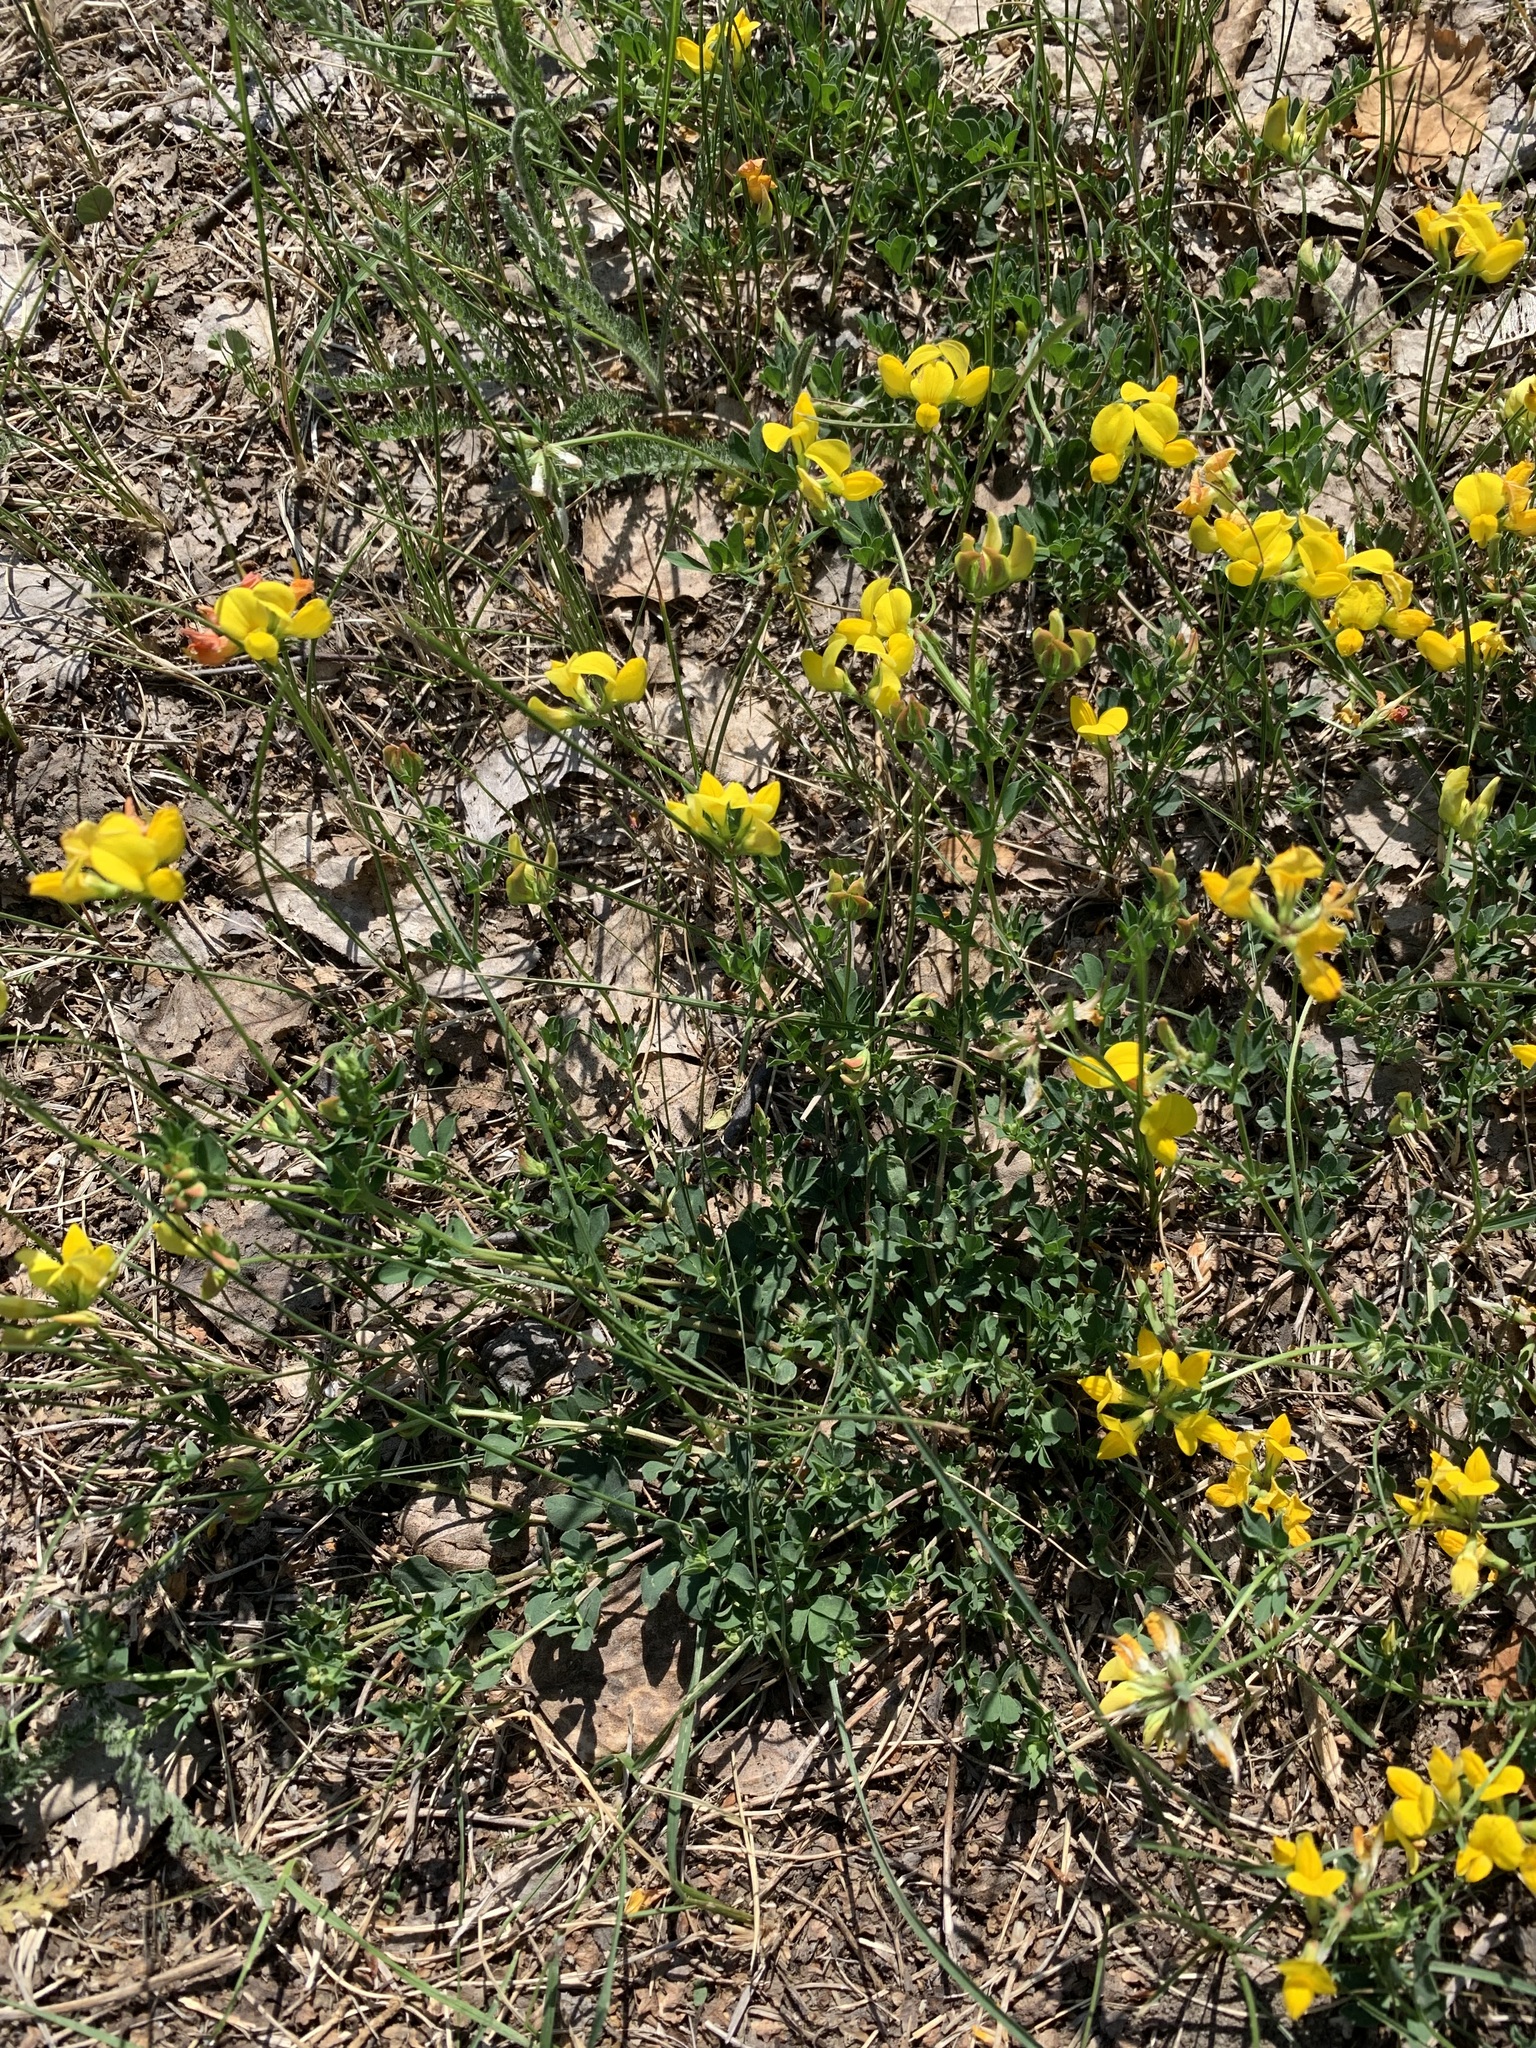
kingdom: Plantae
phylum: Tracheophyta
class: Magnoliopsida
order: Fabales
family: Fabaceae
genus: Lotus
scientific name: Lotus corniculatus
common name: Common bird's-foot-trefoil
